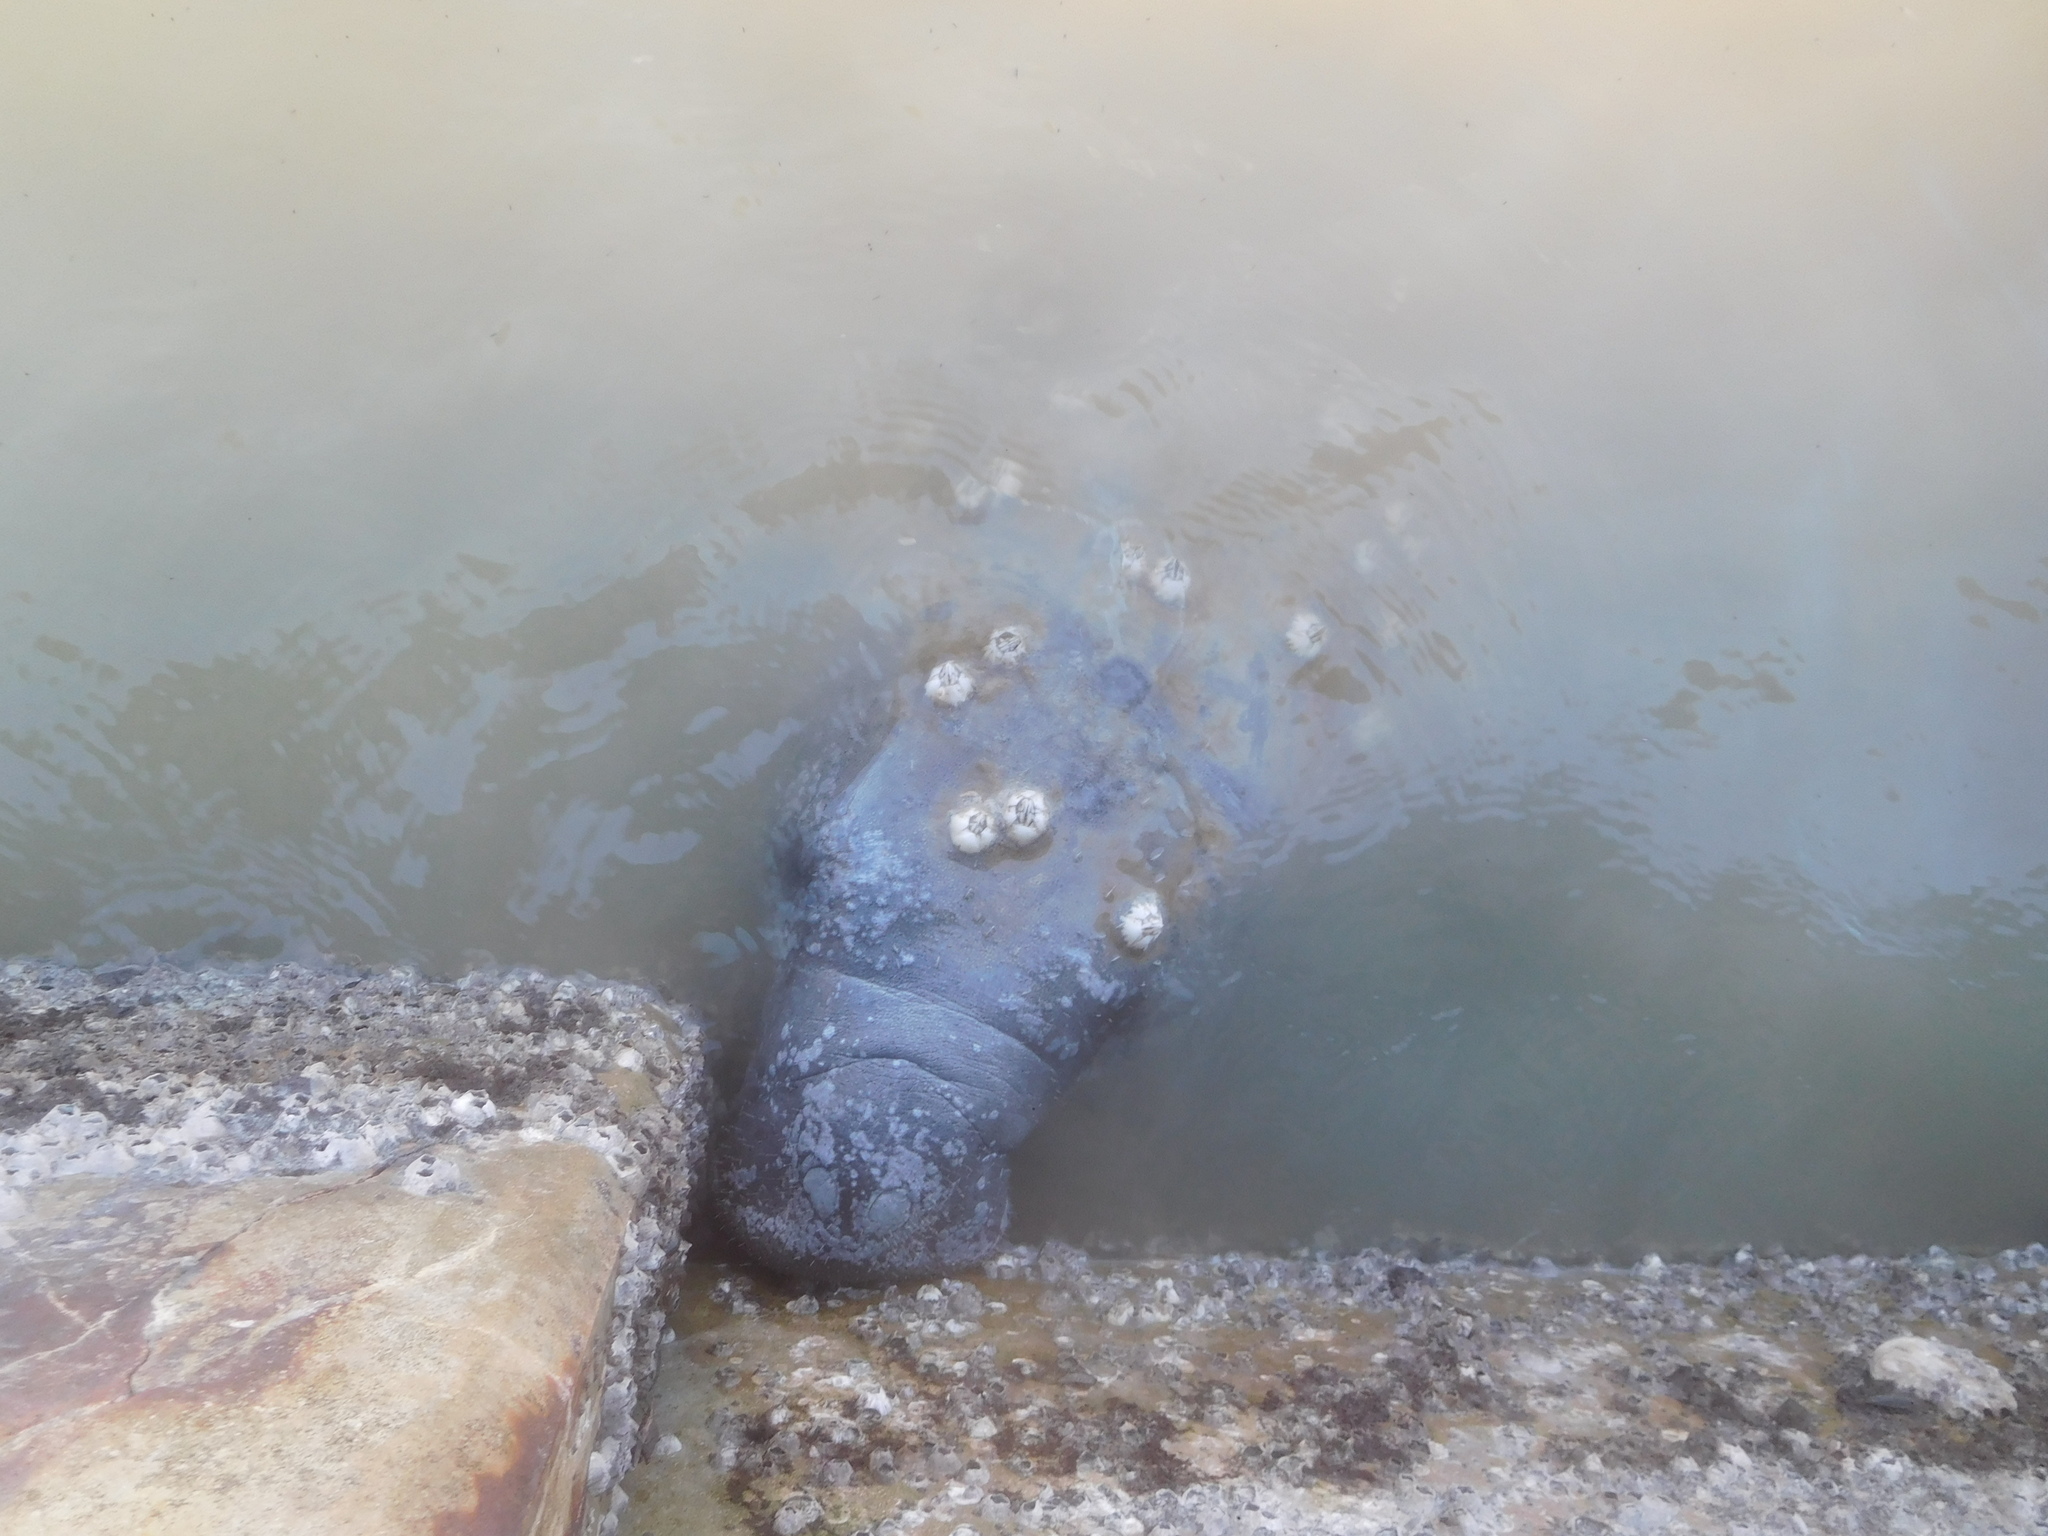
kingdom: Animalia
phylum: Chordata
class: Mammalia
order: Sirenia
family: Trichechidae
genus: Trichechus
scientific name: Trichechus manatus
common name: West indian manatee
